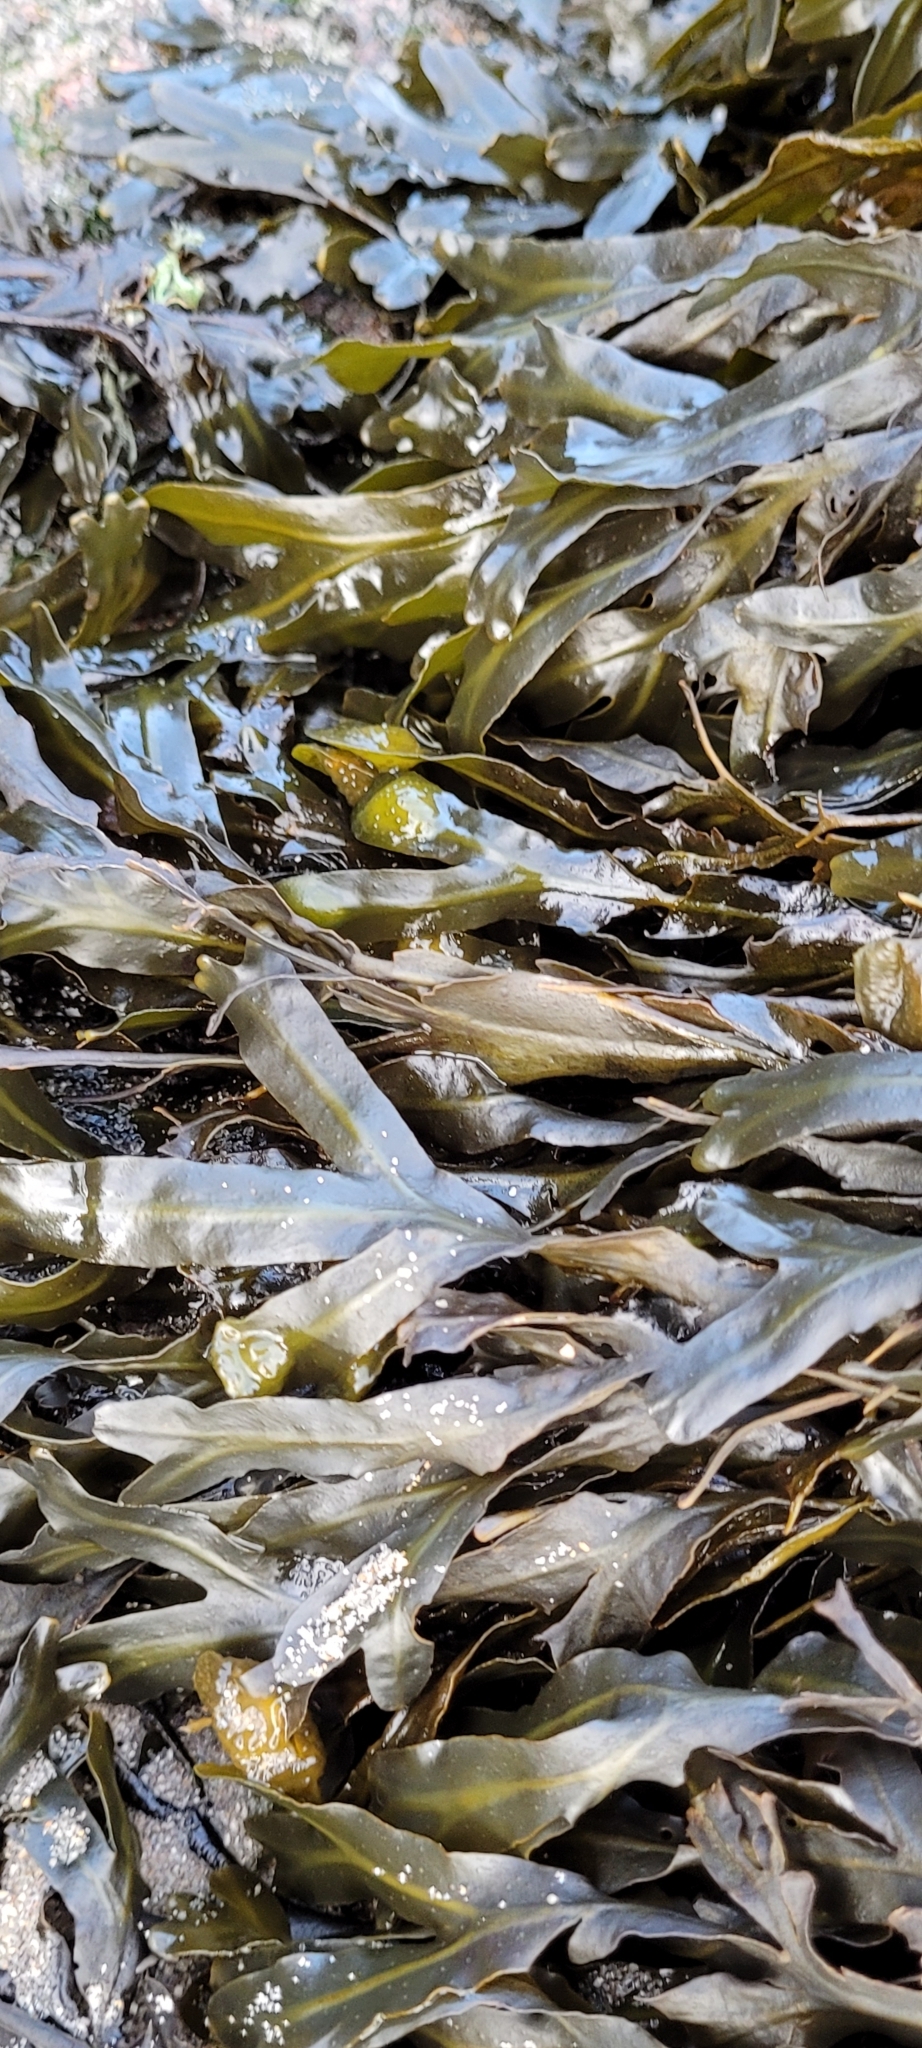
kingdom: Chromista
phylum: Ochrophyta
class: Phaeophyceae
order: Fucales
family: Fucaceae
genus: Fucus
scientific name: Fucus spiralis
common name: Spiral wrack
